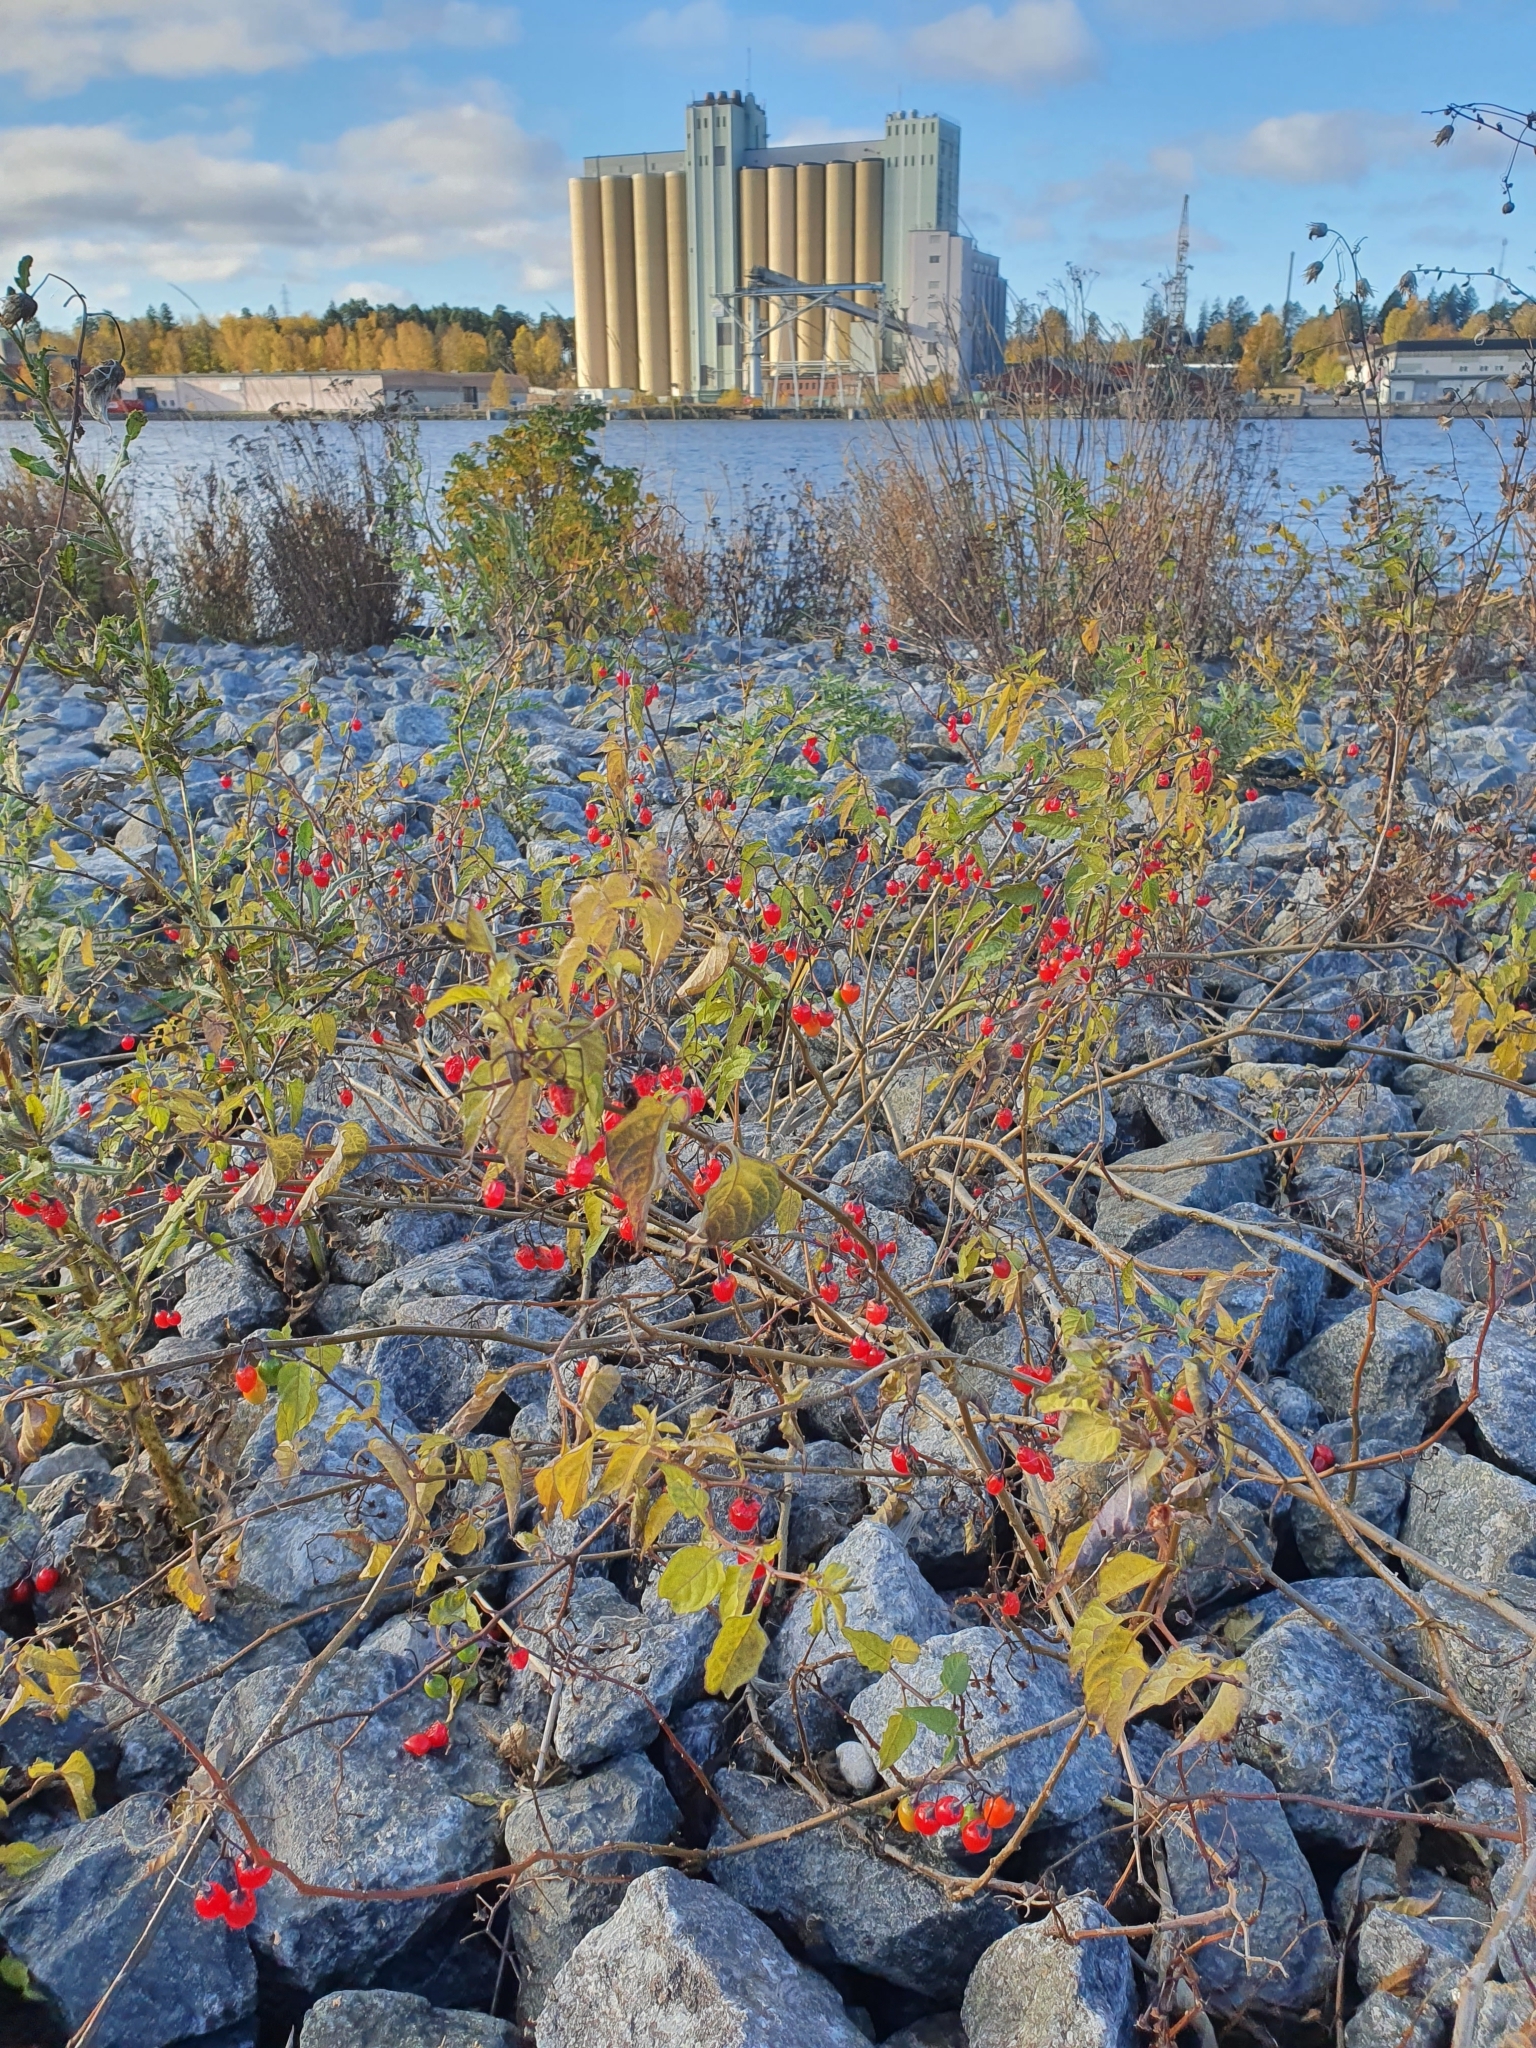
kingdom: Plantae
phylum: Tracheophyta
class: Magnoliopsida
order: Solanales
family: Solanaceae
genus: Solanum
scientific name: Solanum dulcamara
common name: Climbing nightshade
